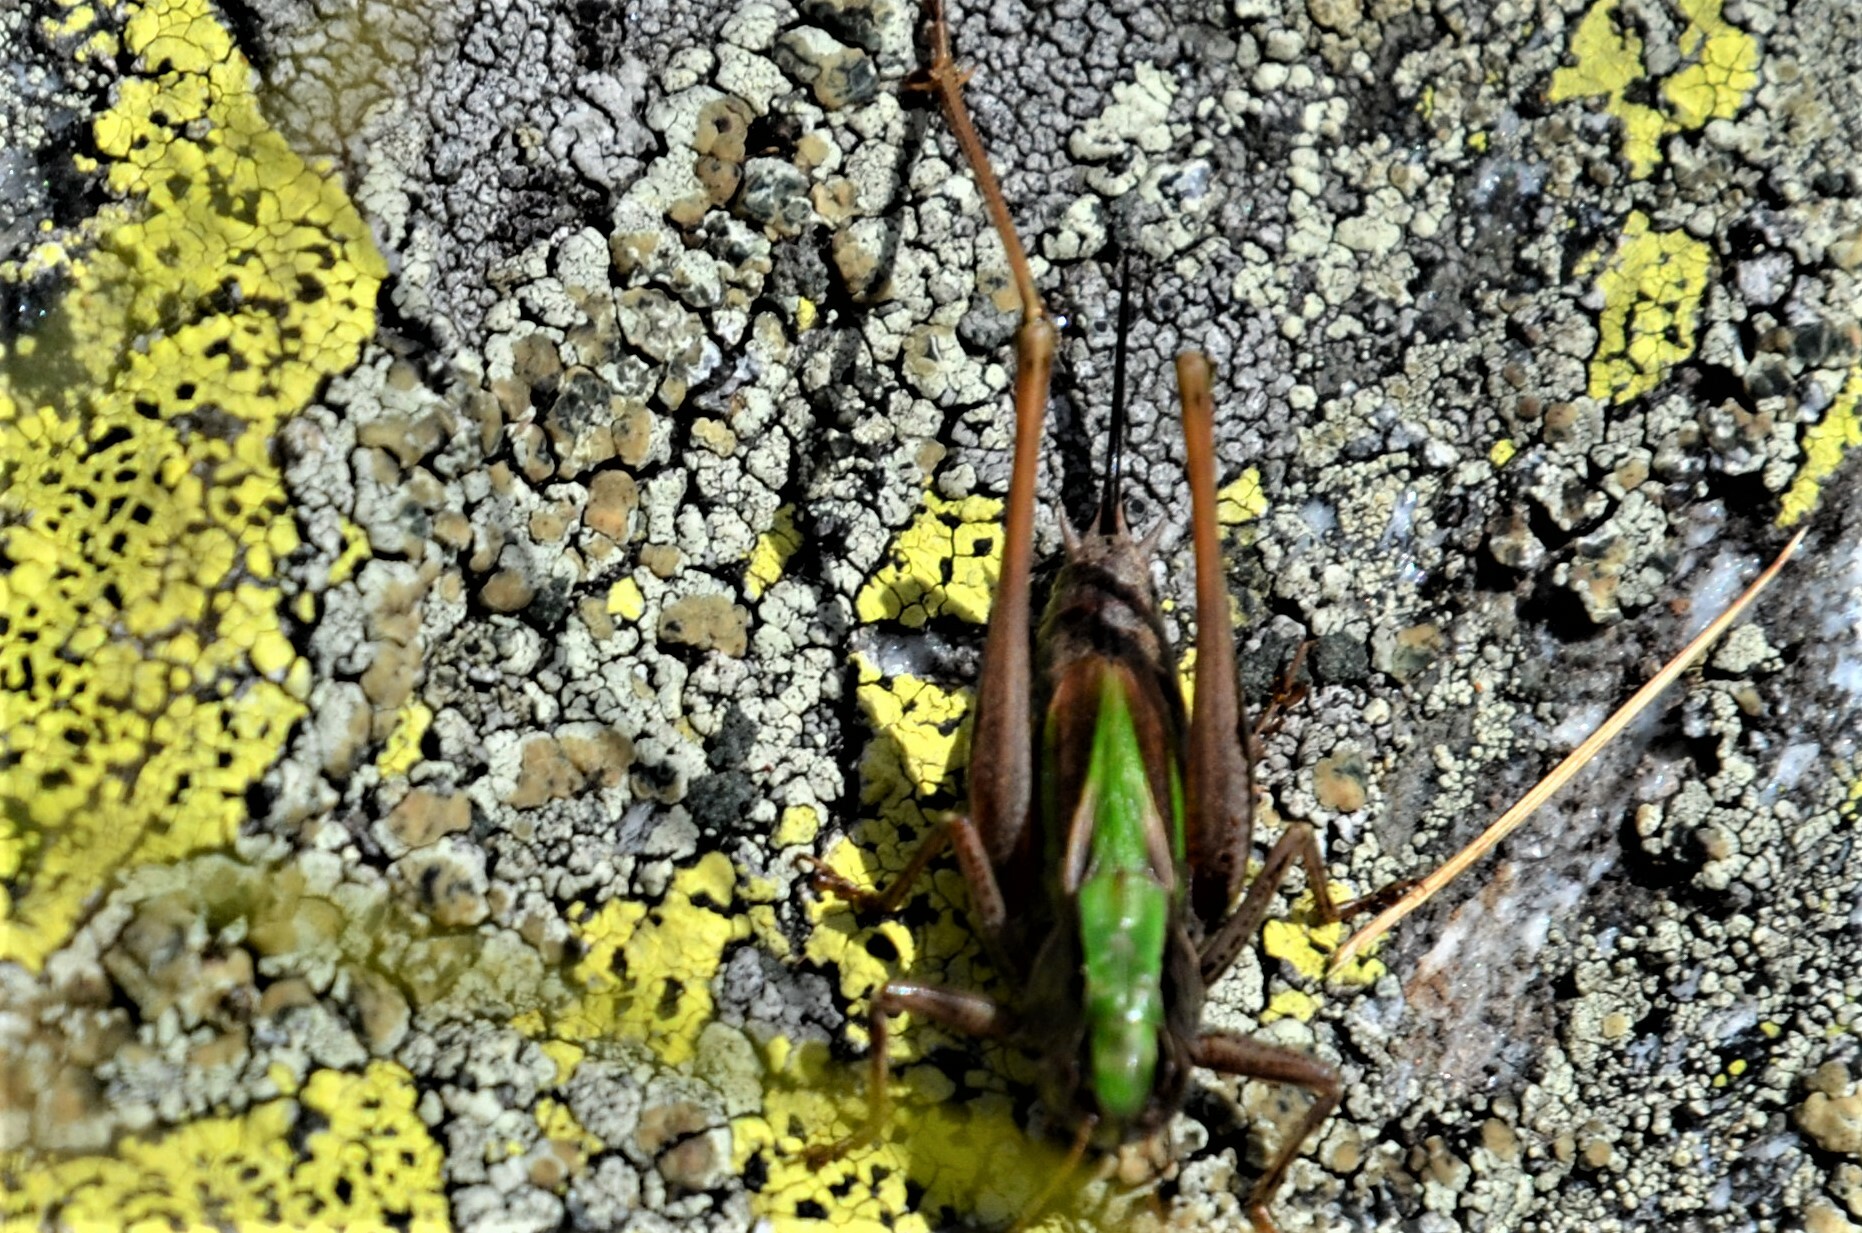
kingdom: Animalia
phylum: Arthropoda
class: Insecta
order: Orthoptera
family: Tettigoniidae
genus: Metrioptera
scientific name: Metrioptera brachyptera
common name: Bog bush-cricket
